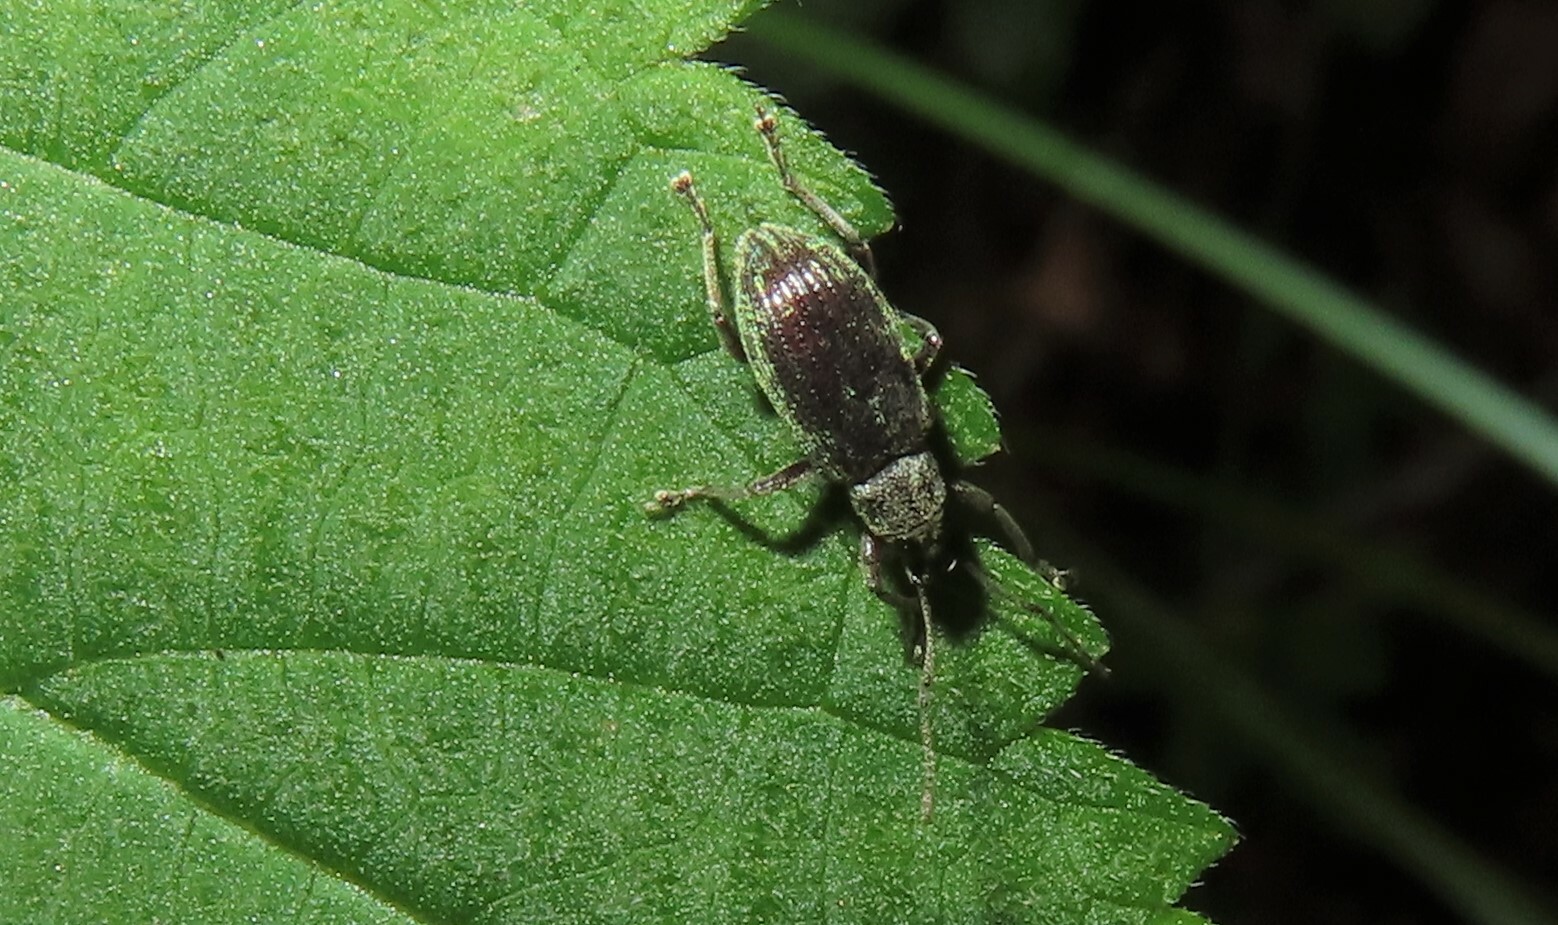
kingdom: Animalia
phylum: Arthropoda
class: Insecta
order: Coleoptera
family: Curculionidae
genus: Cyrtepistomus
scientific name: Cyrtepistomus castaneus
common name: Weevil
